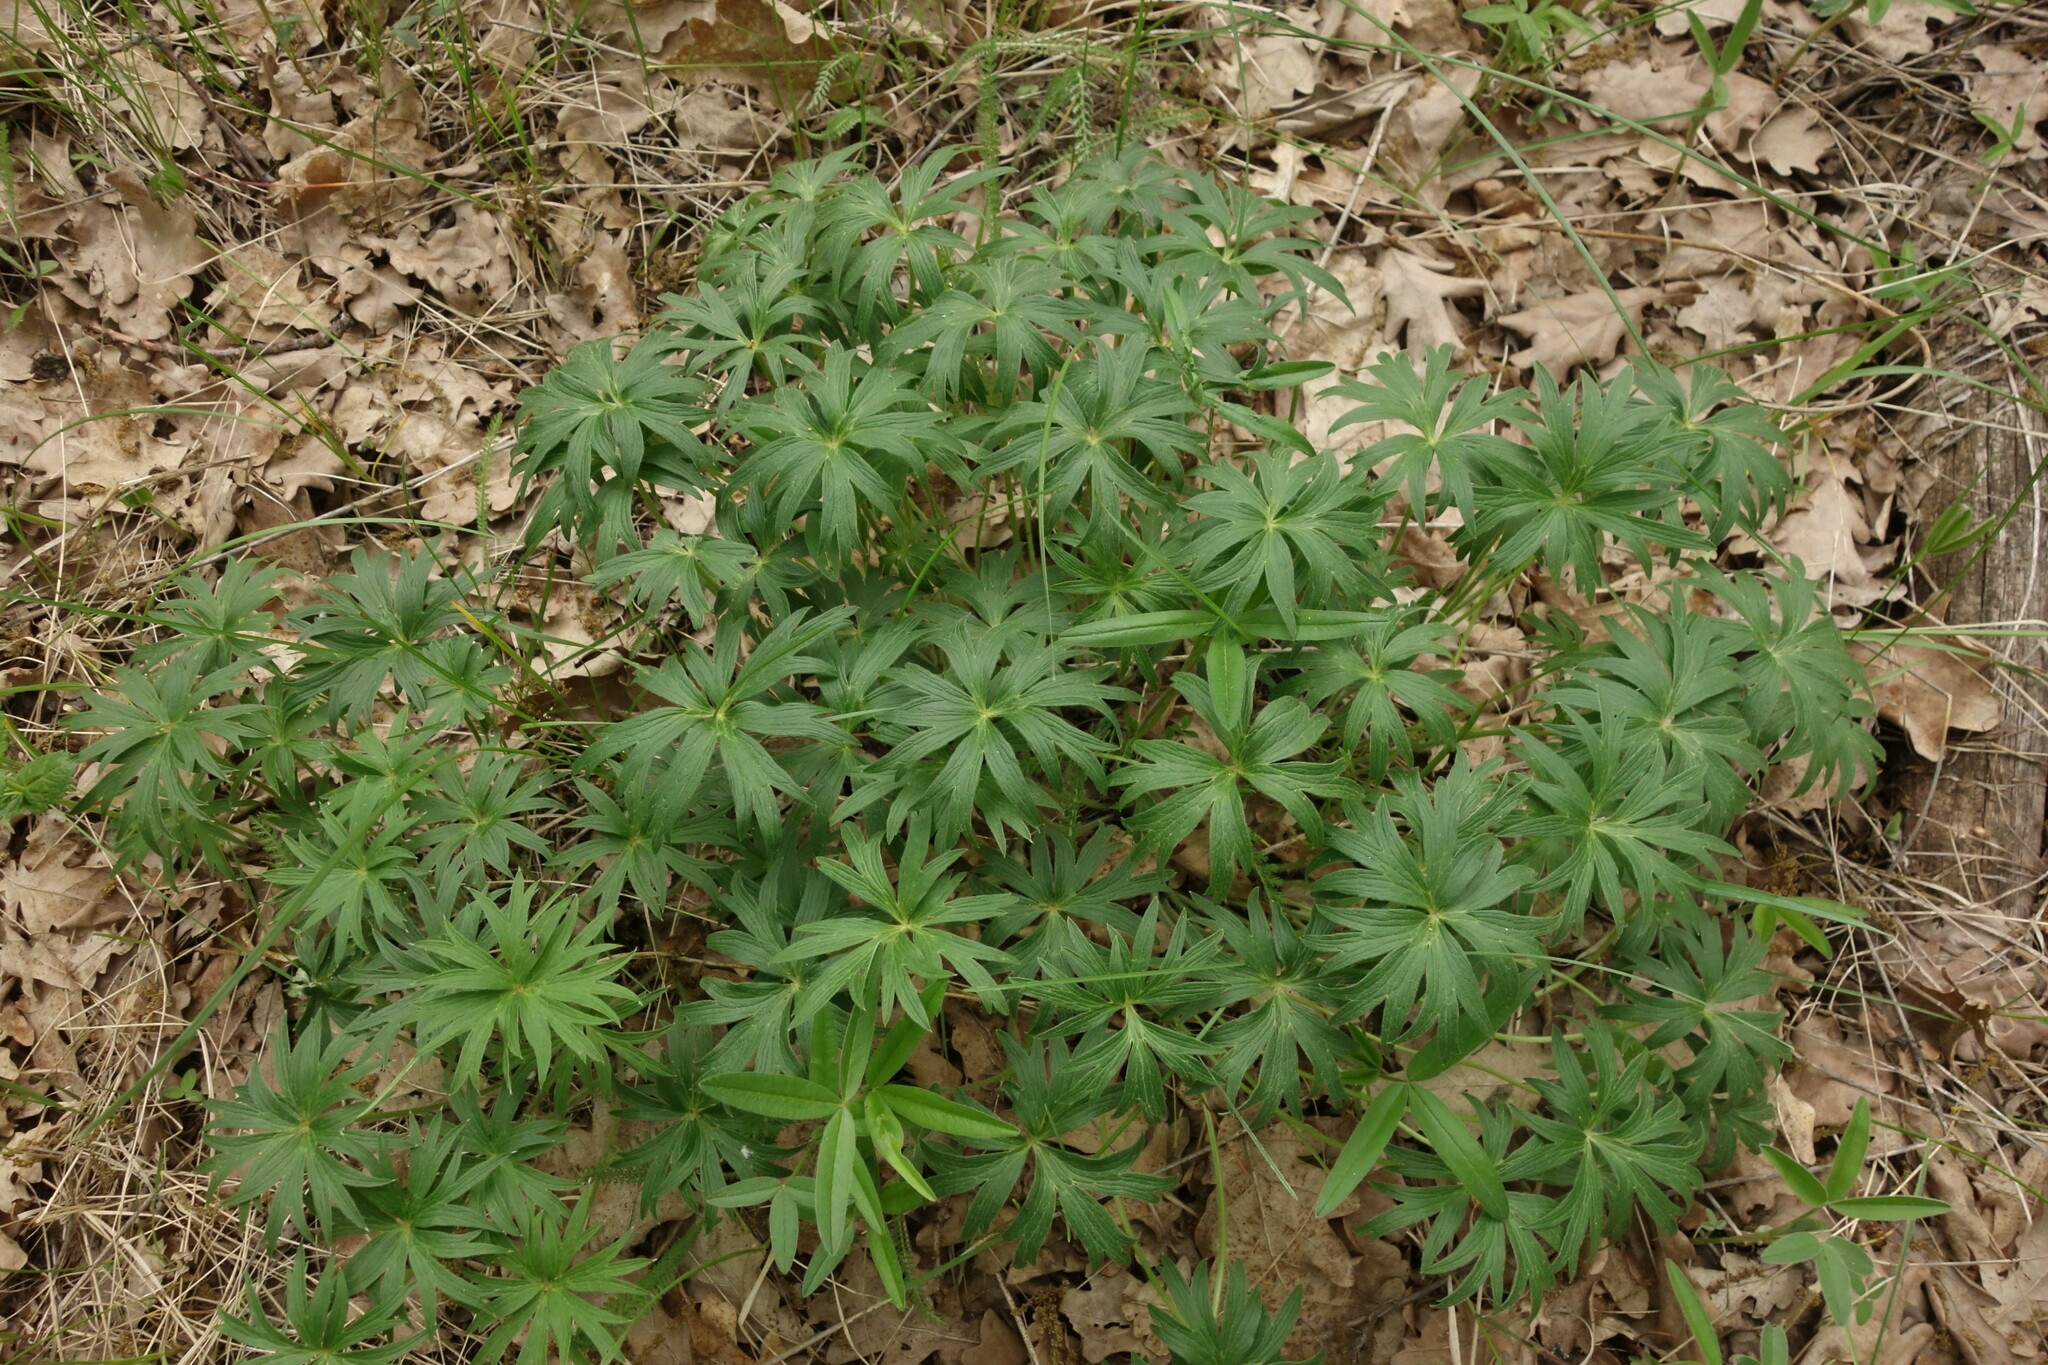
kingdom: Plantae
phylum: Tracheophyta
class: Magnoliopsida
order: Ranunculales
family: Ranunculaceae
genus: Pulsatilla
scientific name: Pulsatilla patens
